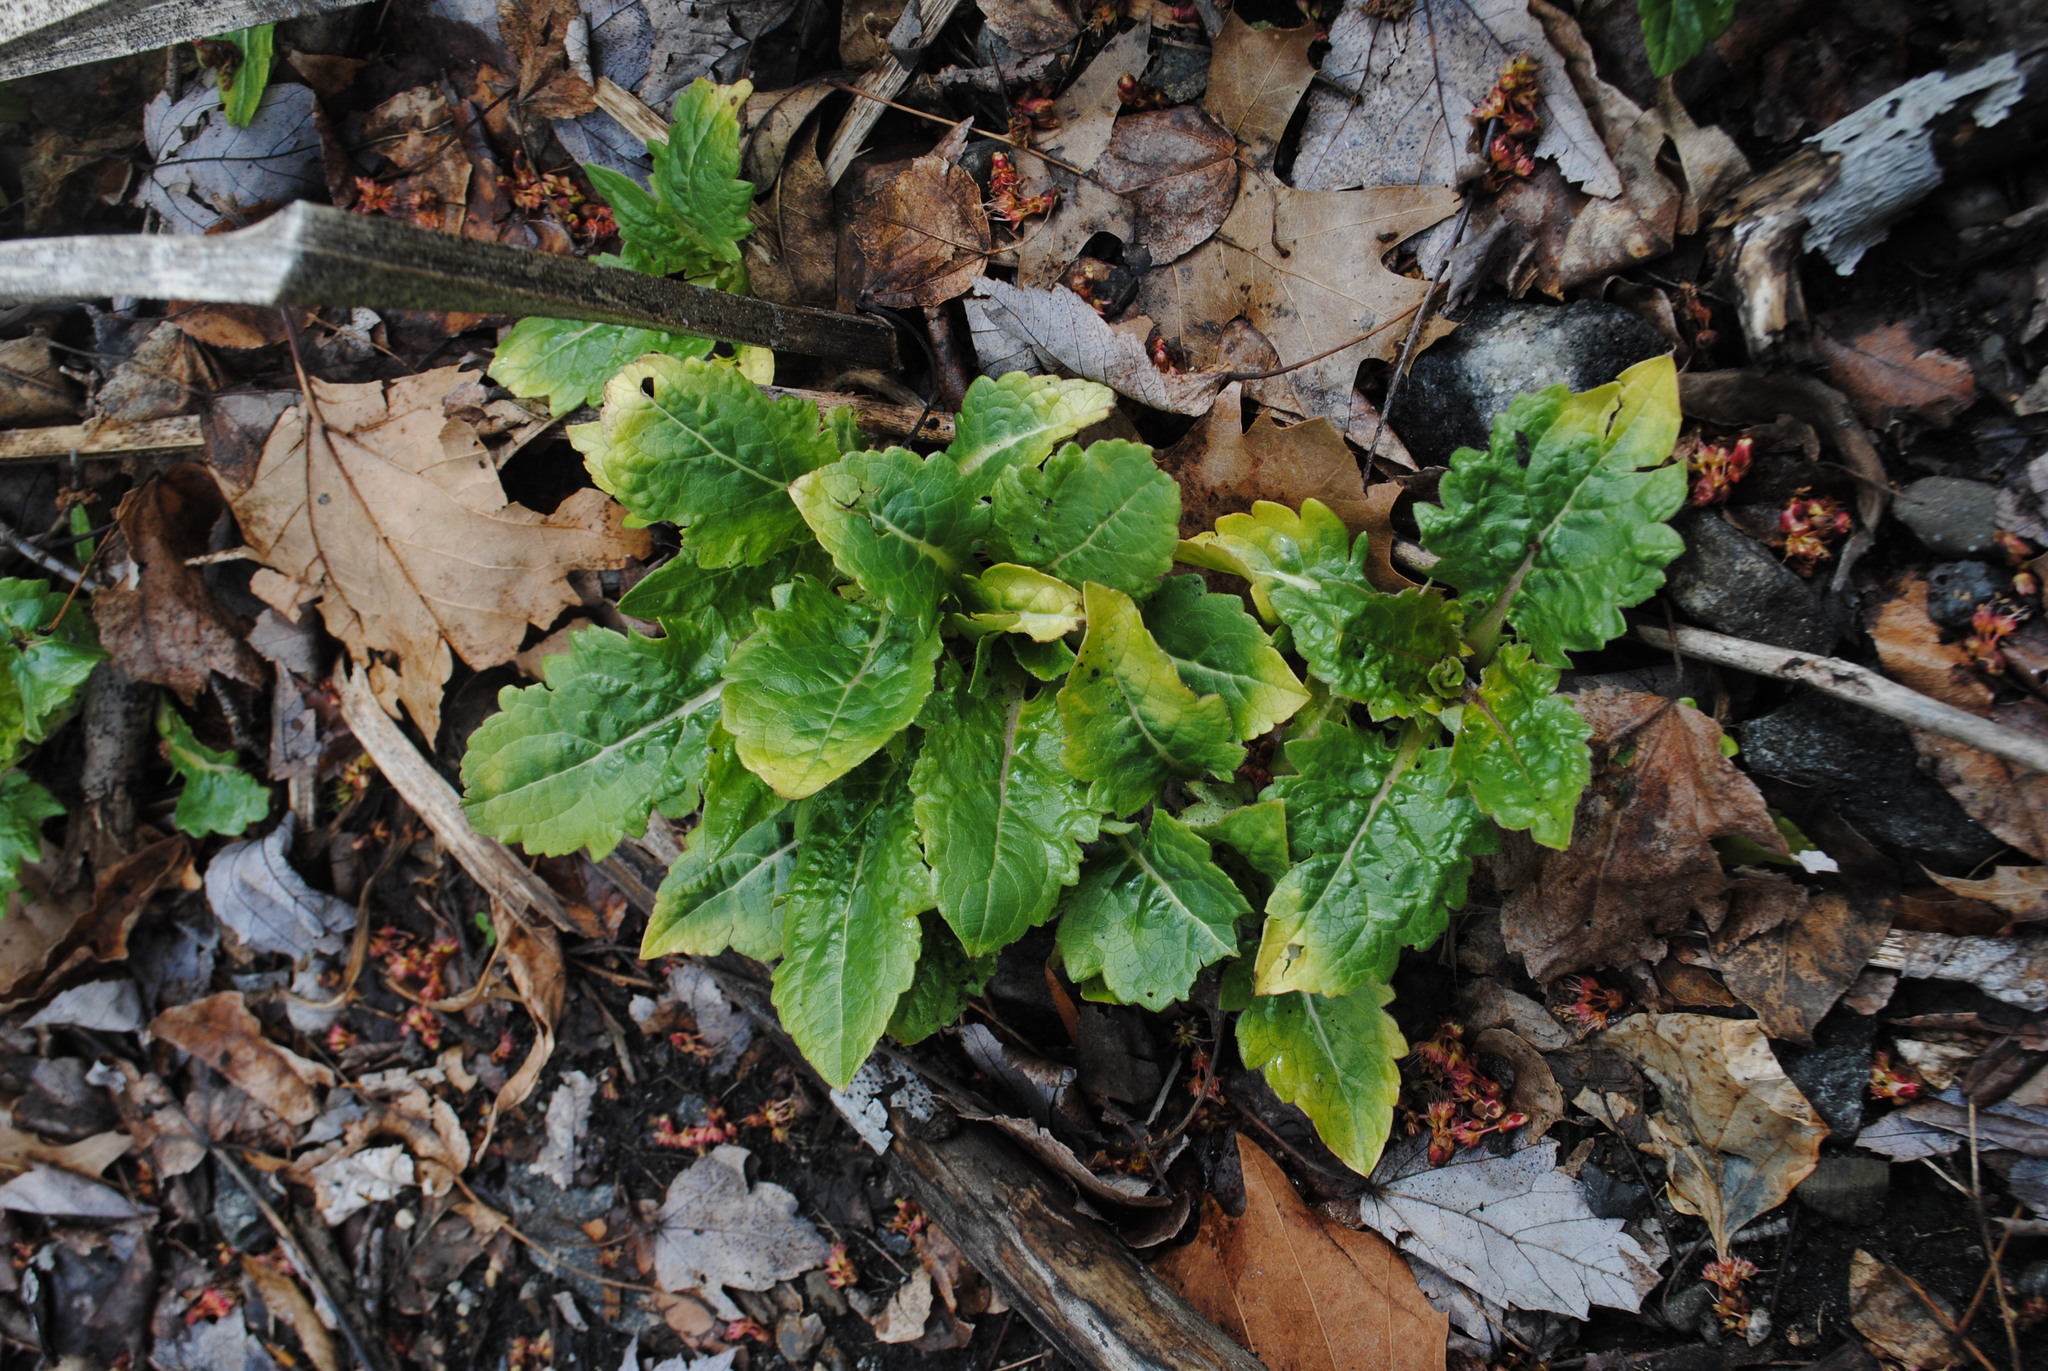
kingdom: Plantae
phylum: Tracheophyta
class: Magnoliopsida
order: Asterales
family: Asteraceae
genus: Silphium
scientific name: Silphium perfoliatum
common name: Cup-plant
